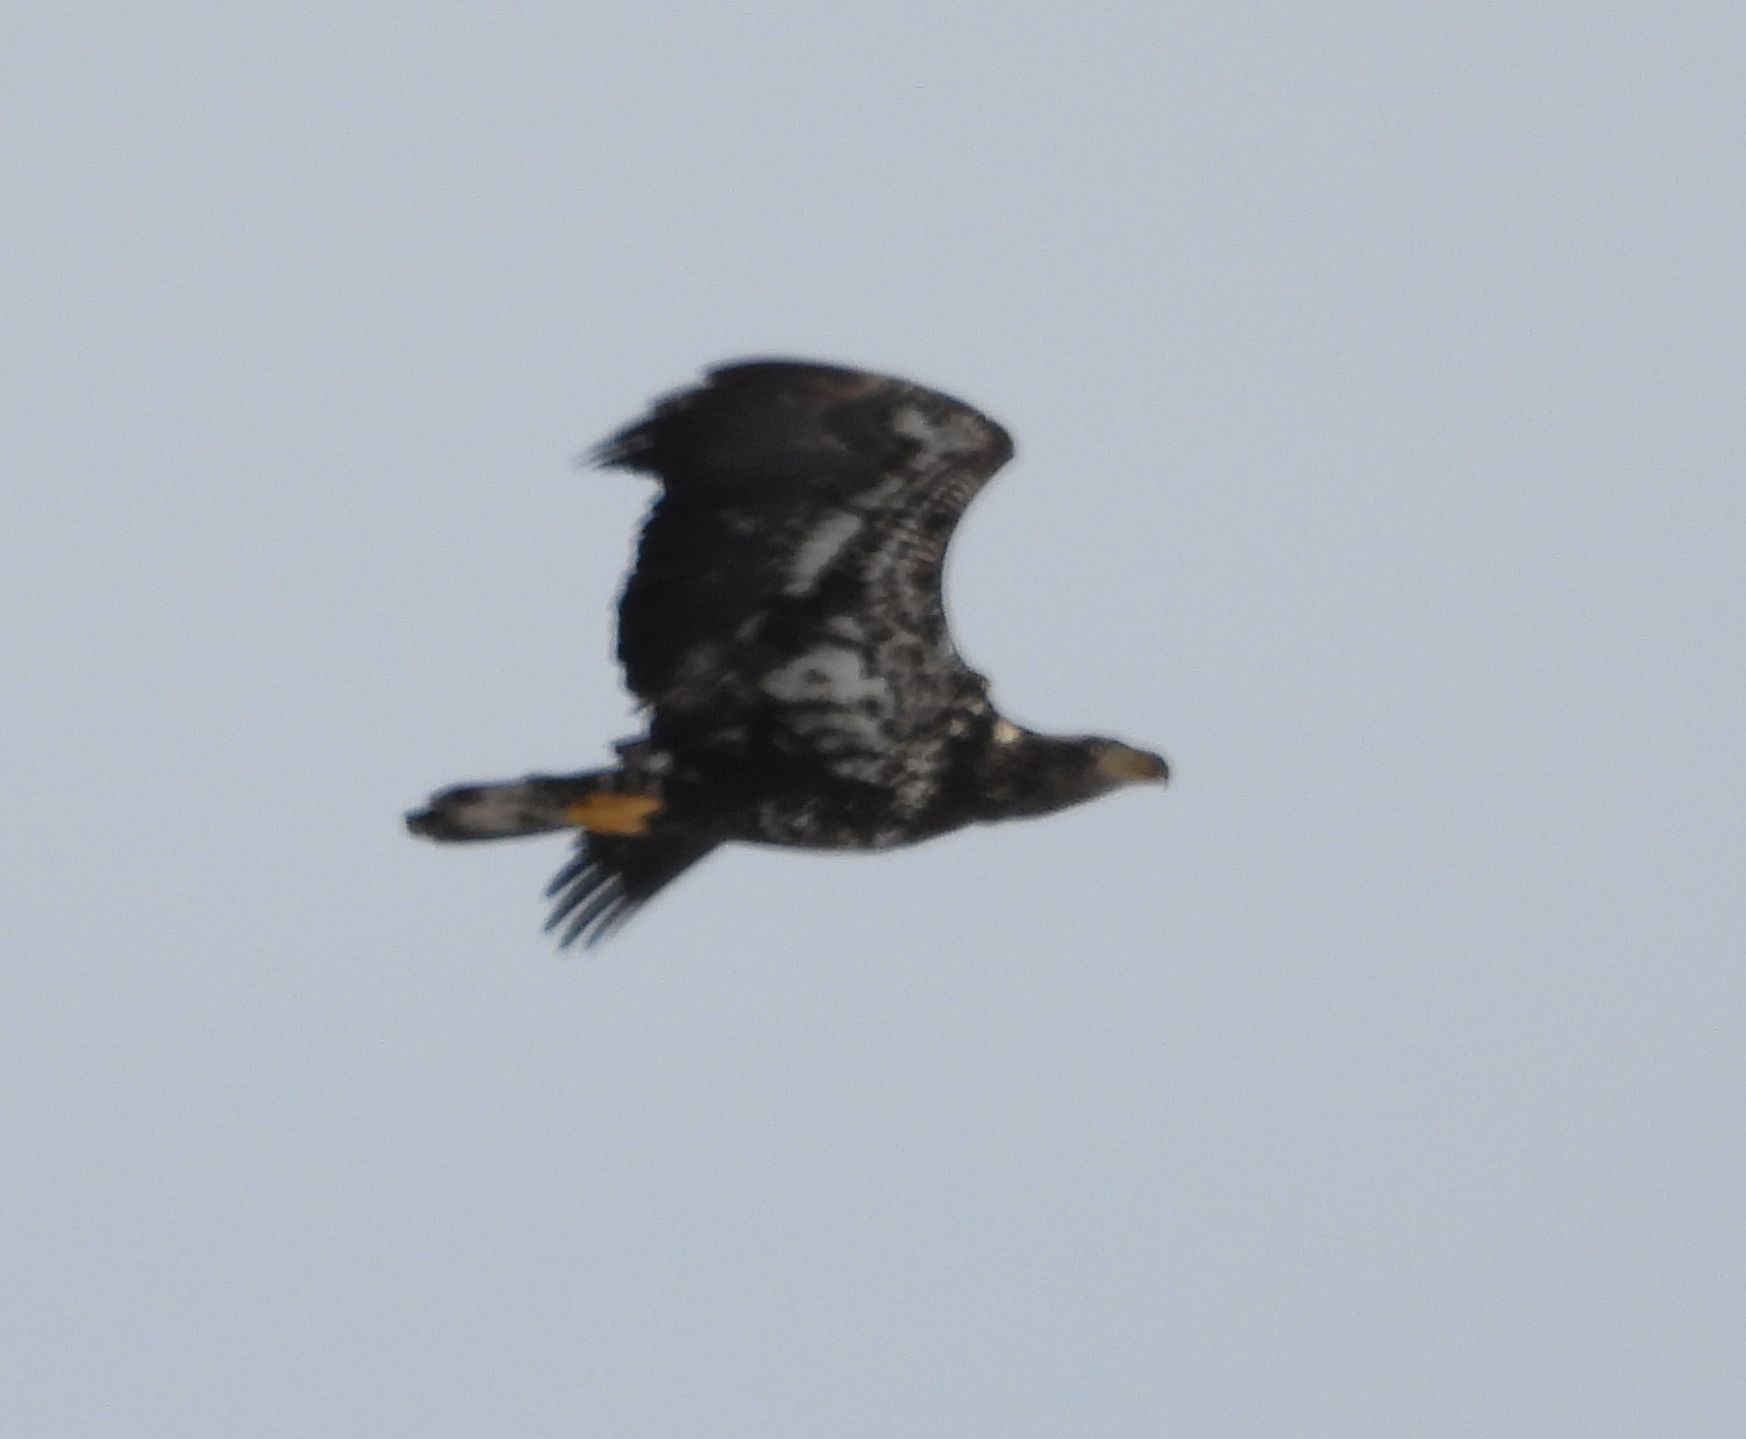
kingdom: Animalia
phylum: Chordata
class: Aves
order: Accipitriformes
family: Accipitridae
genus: Haliaeetus
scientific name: Haliaeetus leucocephalus
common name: Bald eagle
